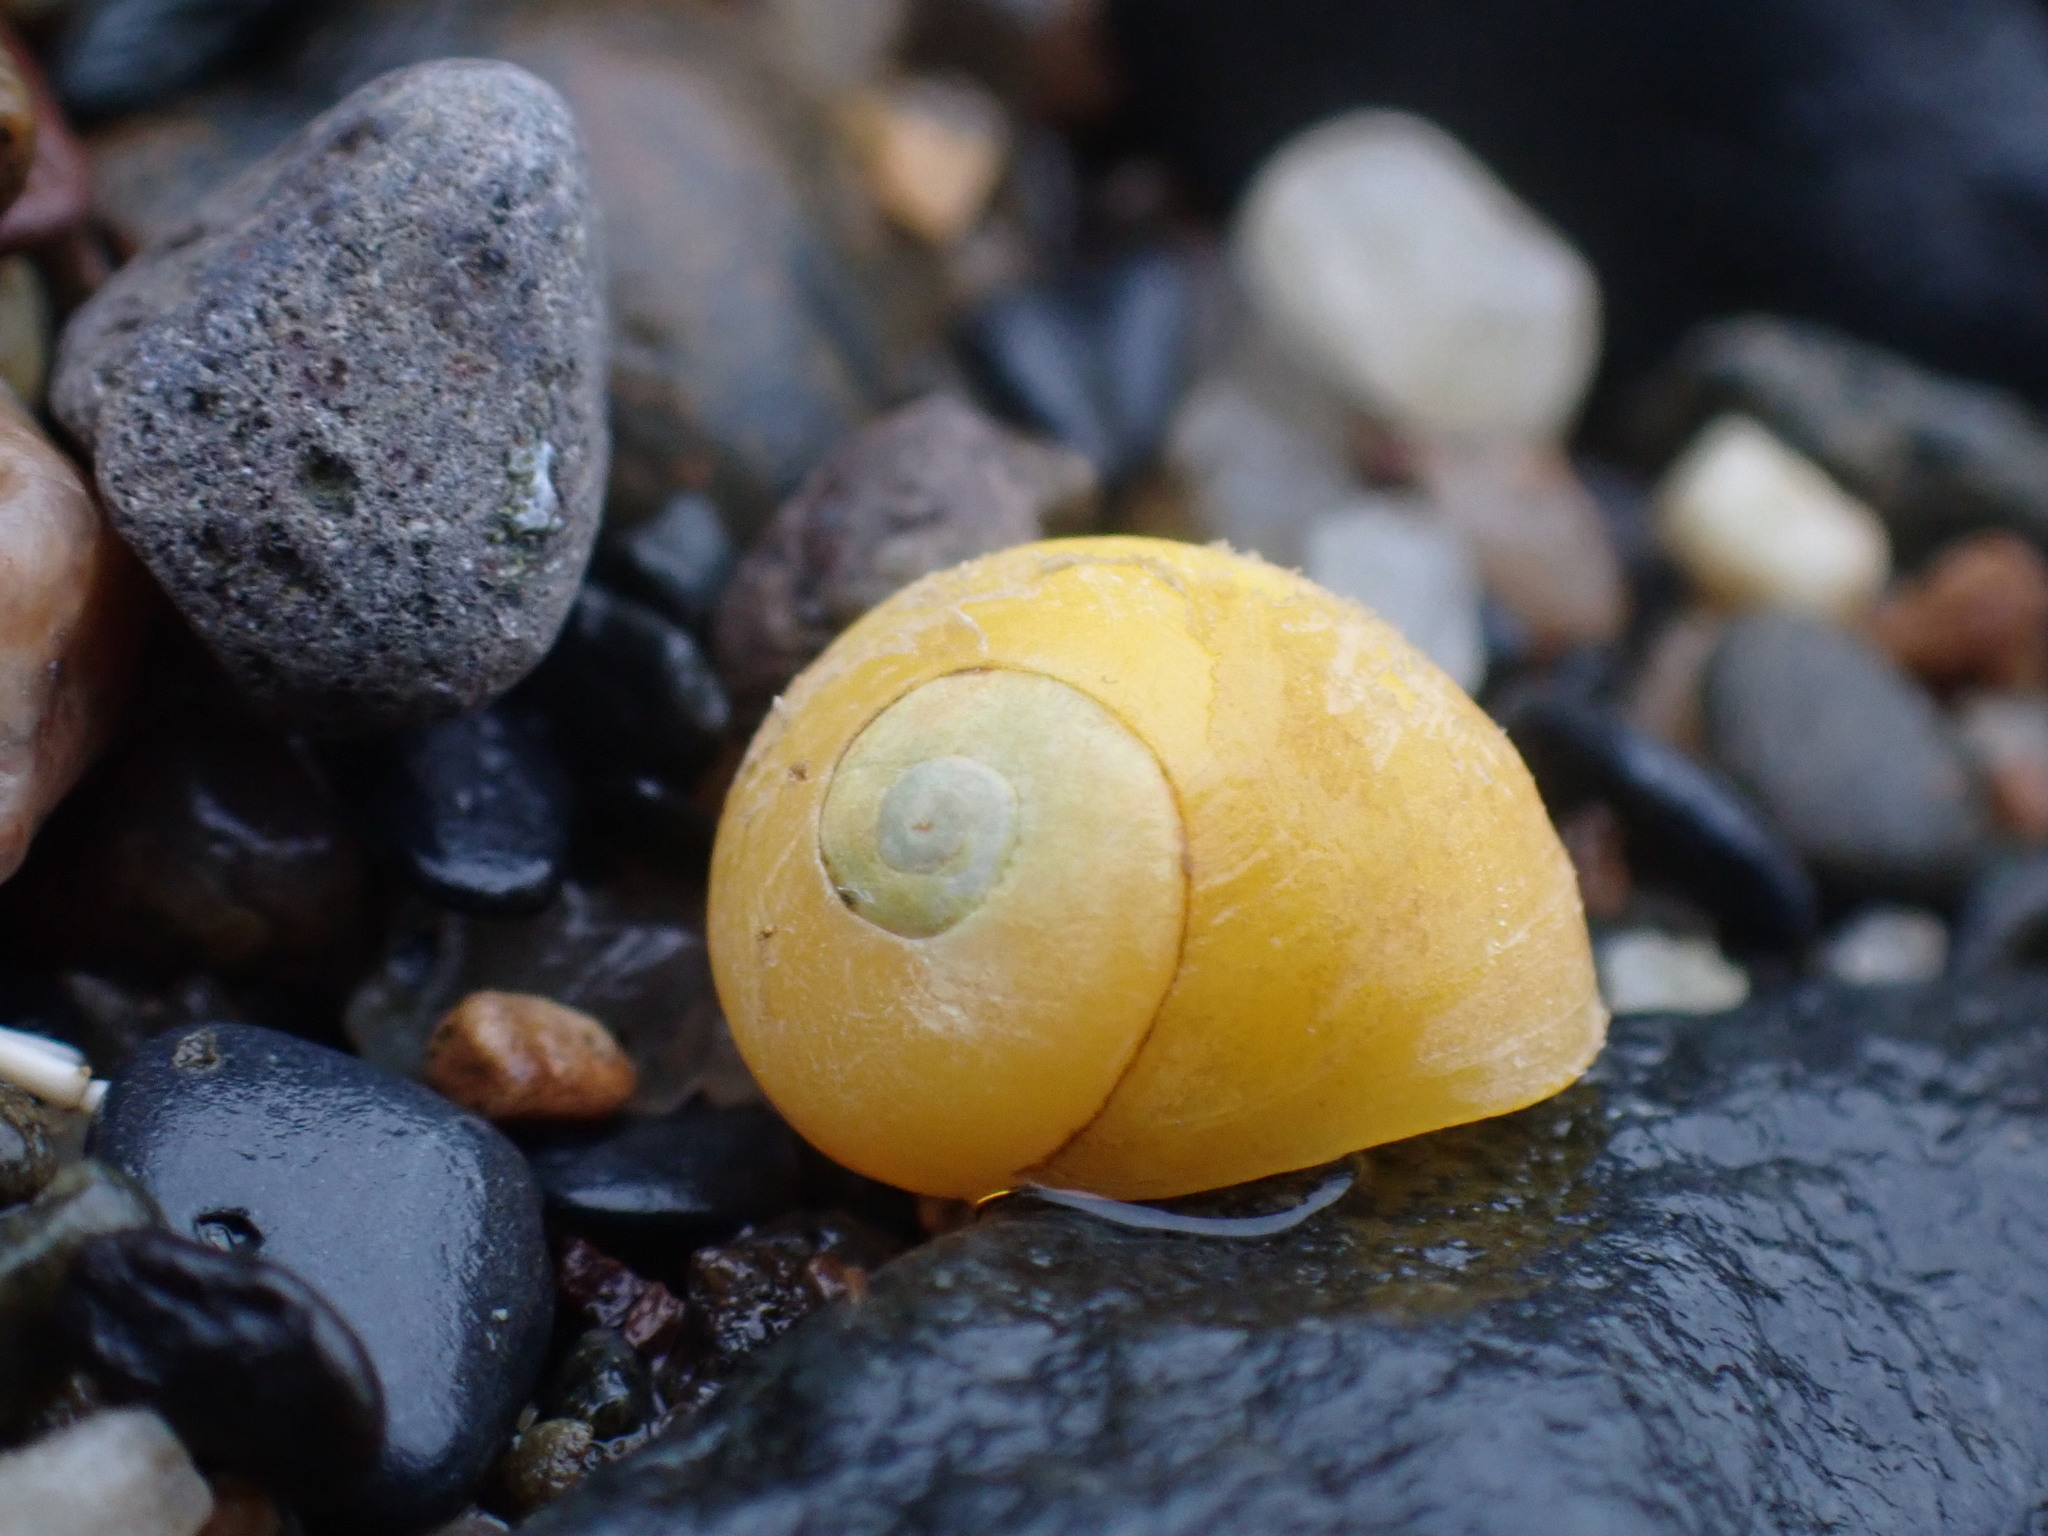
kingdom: Animalia
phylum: Mollusca
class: Gastropoda
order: Littorinimorpha
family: Littorinidae
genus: Littorina
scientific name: Littorina obtusata
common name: Flat periwinkle
